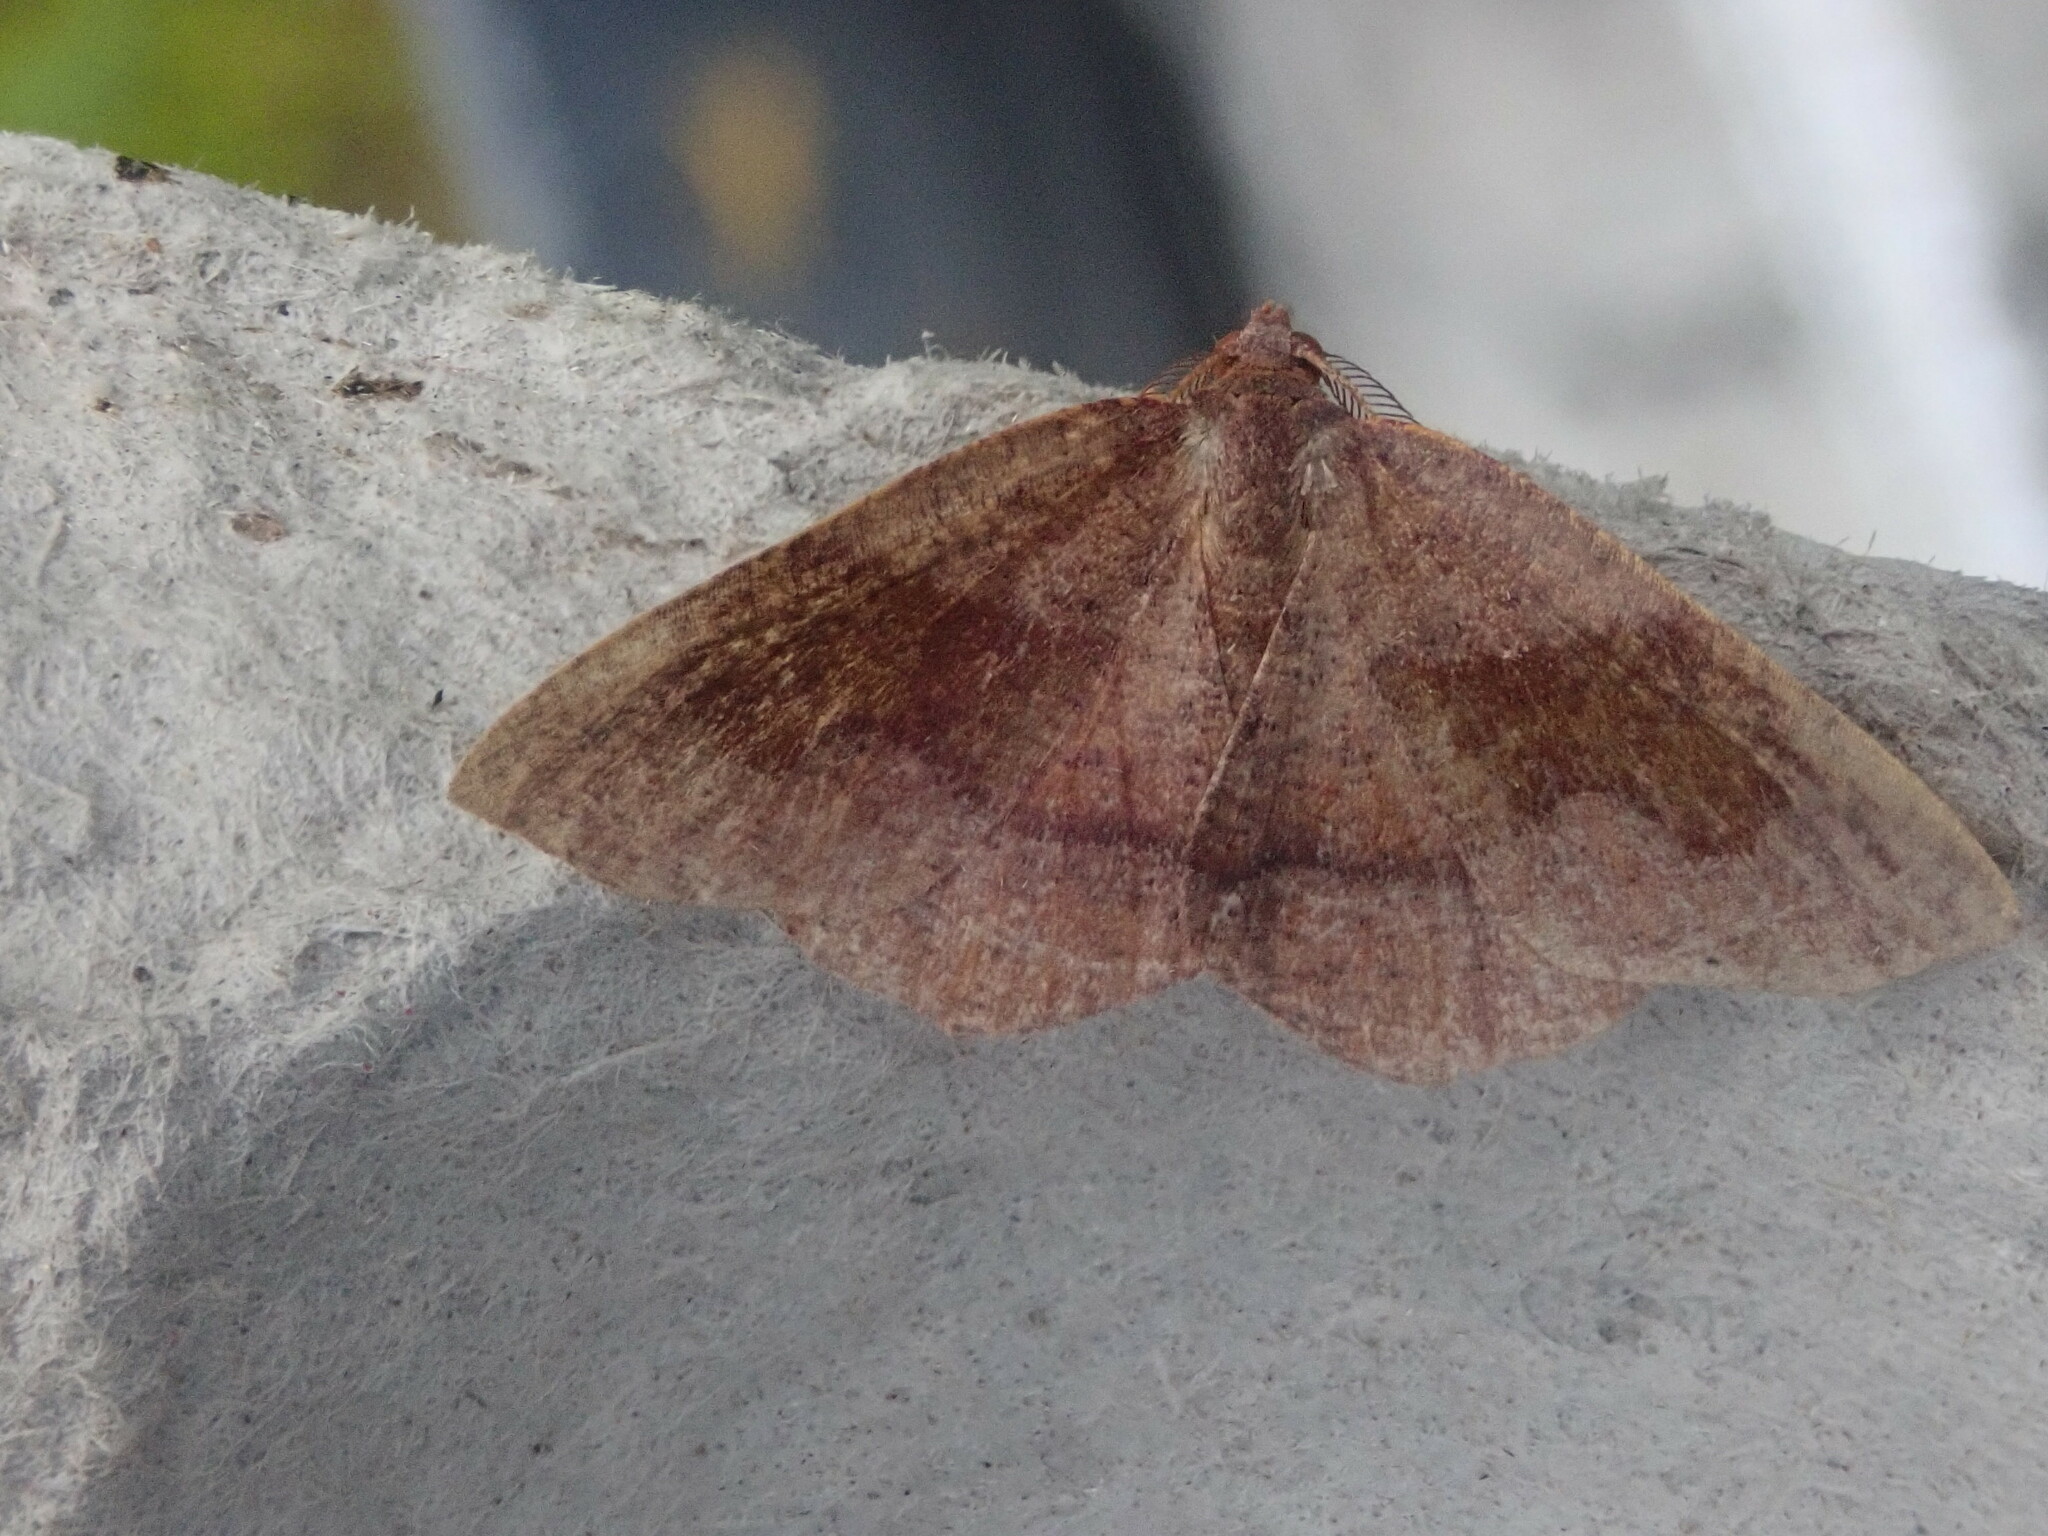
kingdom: Animalia
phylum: Arthropoda
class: Insecta
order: Lepidoptera
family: Geometridae
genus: Plagodis
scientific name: Plagodis pulveraria
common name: Barred umber
